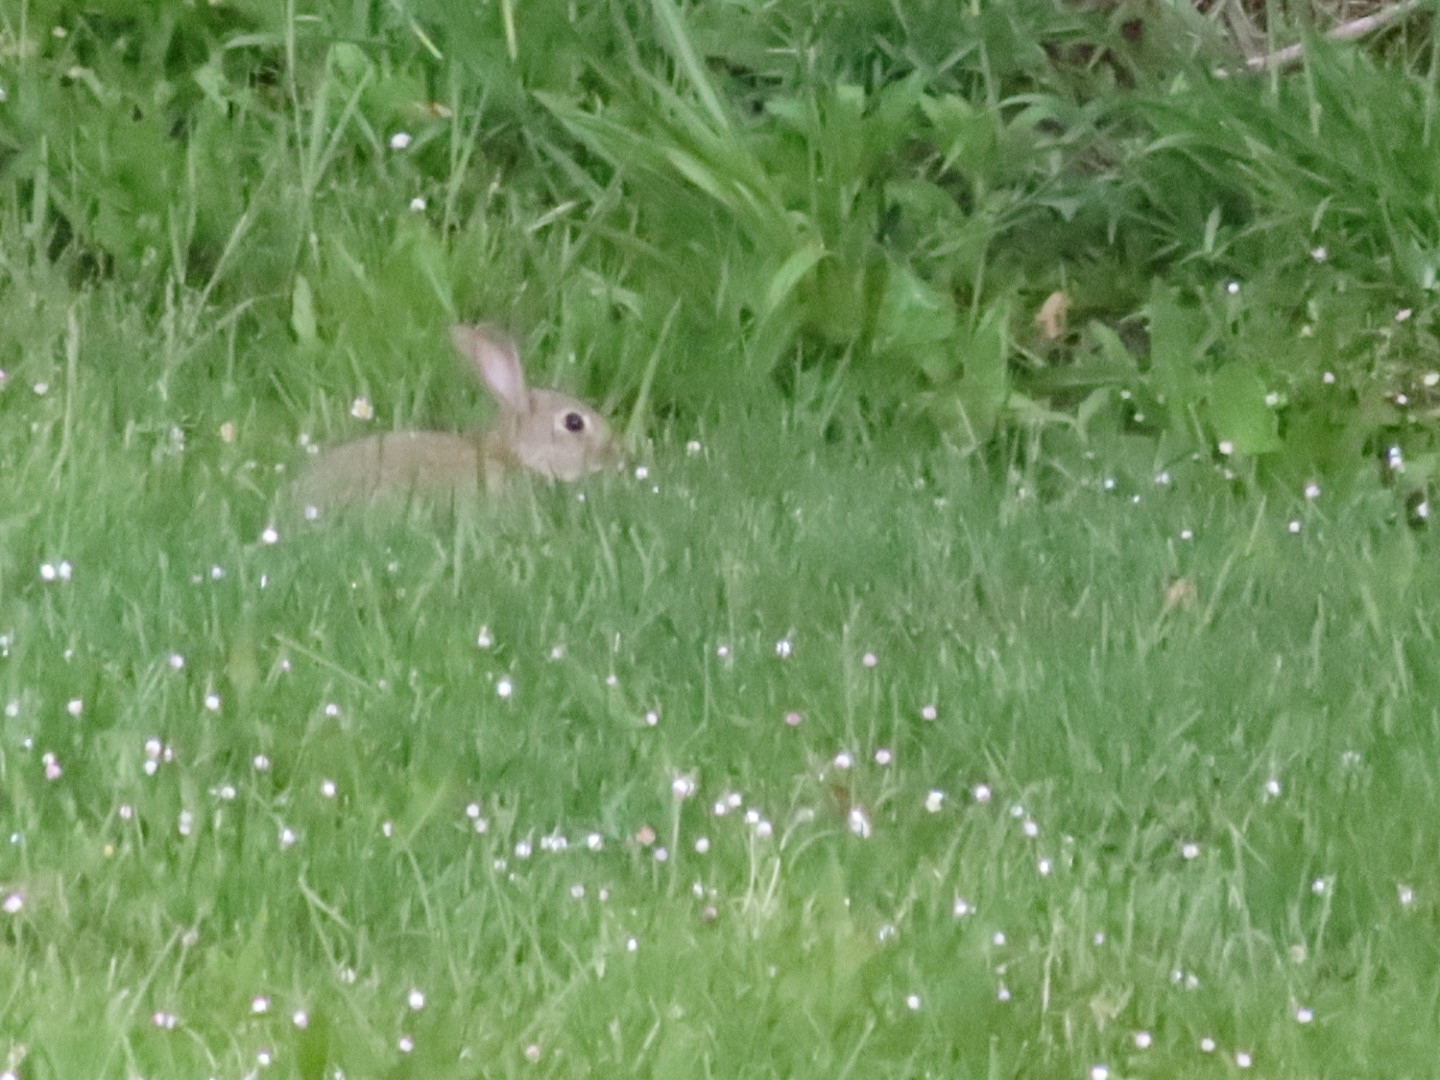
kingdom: Animalia
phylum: Chordata
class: Mammalia
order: Lagomorpha
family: Leporidae
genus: Oryctolagus
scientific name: Oryctolagus cuniculus
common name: European rabbit
